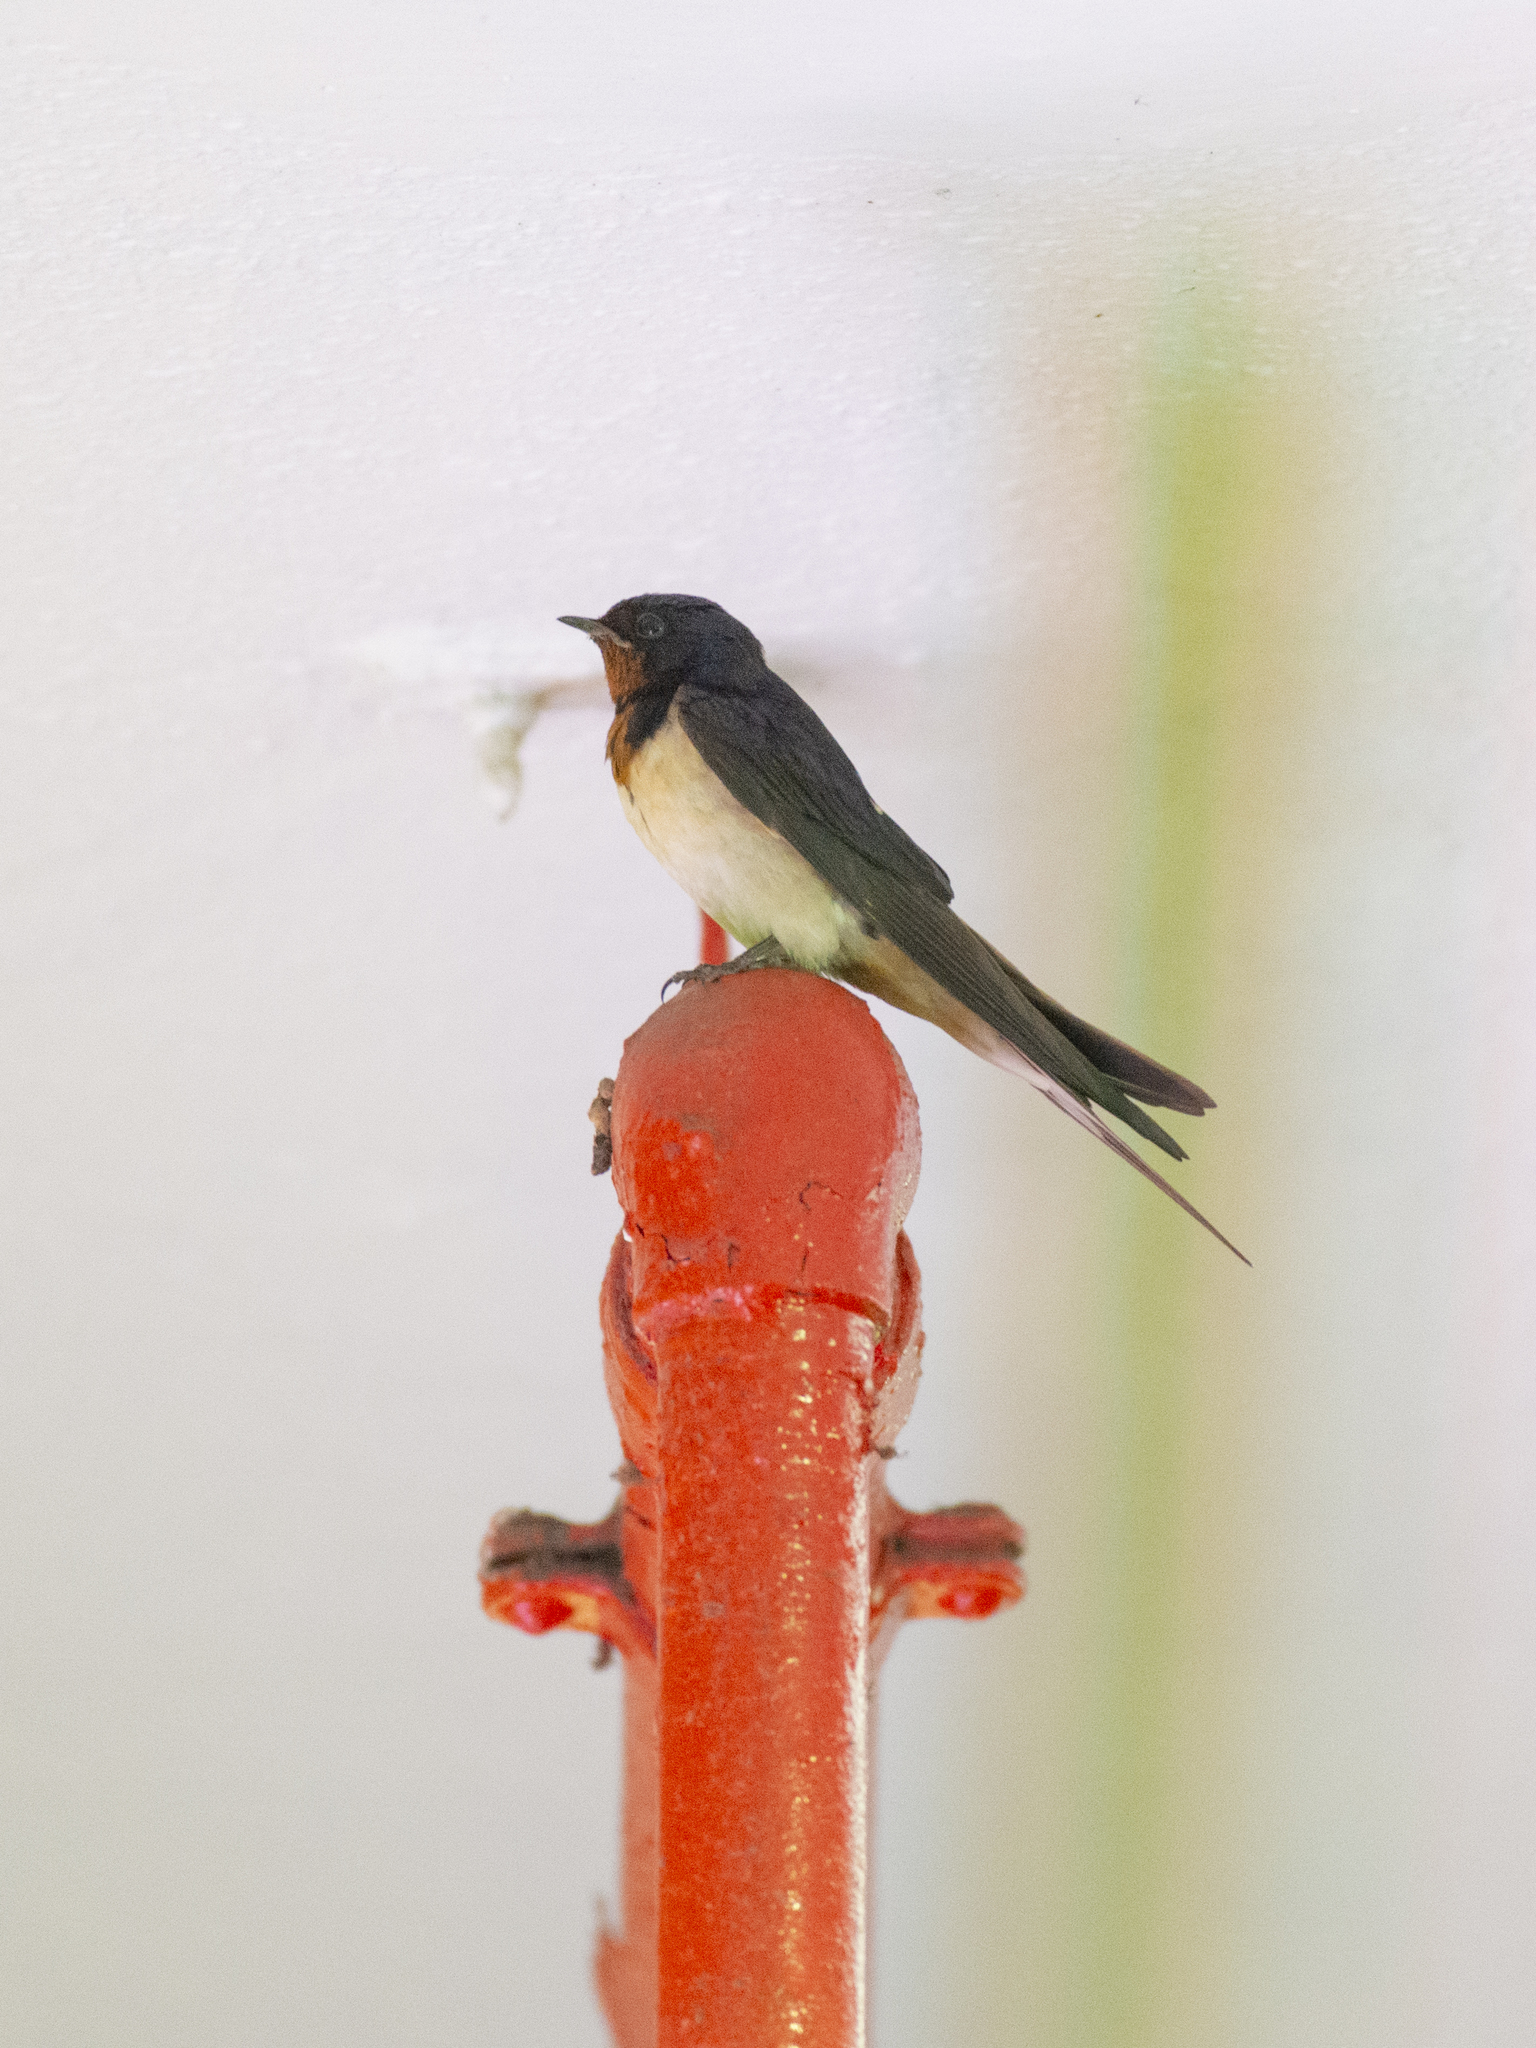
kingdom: Animalia
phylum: Chordata
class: Aves
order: Passeriformes
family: Hirundinidae
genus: Hirundo
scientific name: Hirundo rustica
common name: Barn swallow
